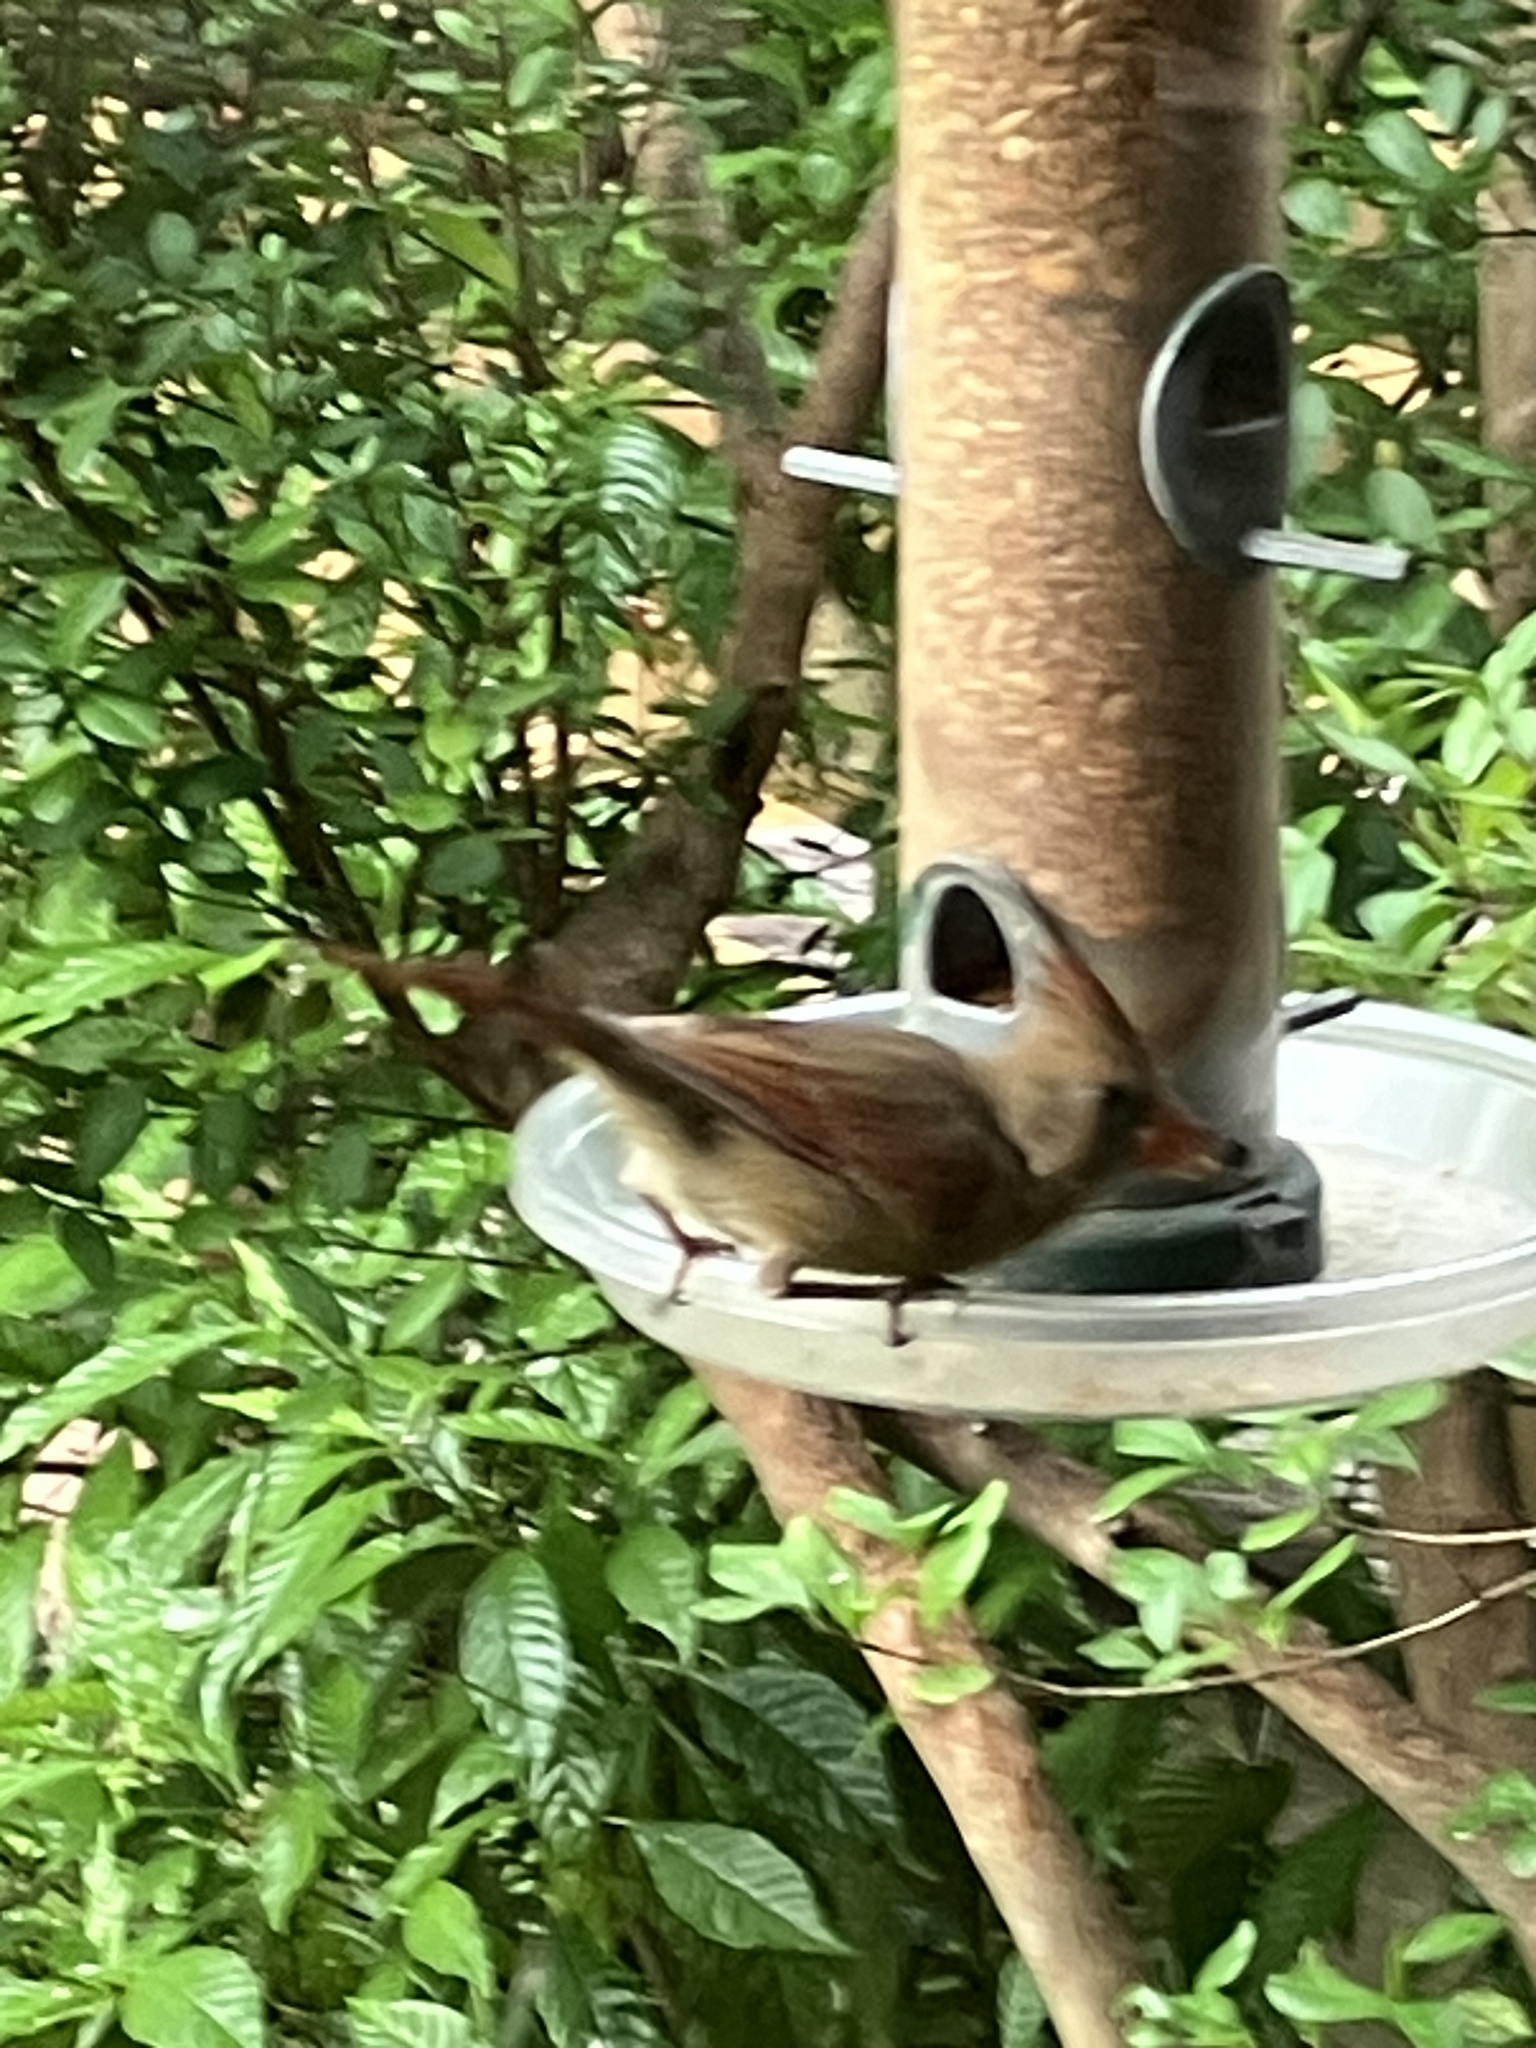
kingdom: Animalia
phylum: Chordata
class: Aves
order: Passeriformes
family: Cardinalidae
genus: Cardinalis
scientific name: Cardinalis cardinalis
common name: Northern cardinal
